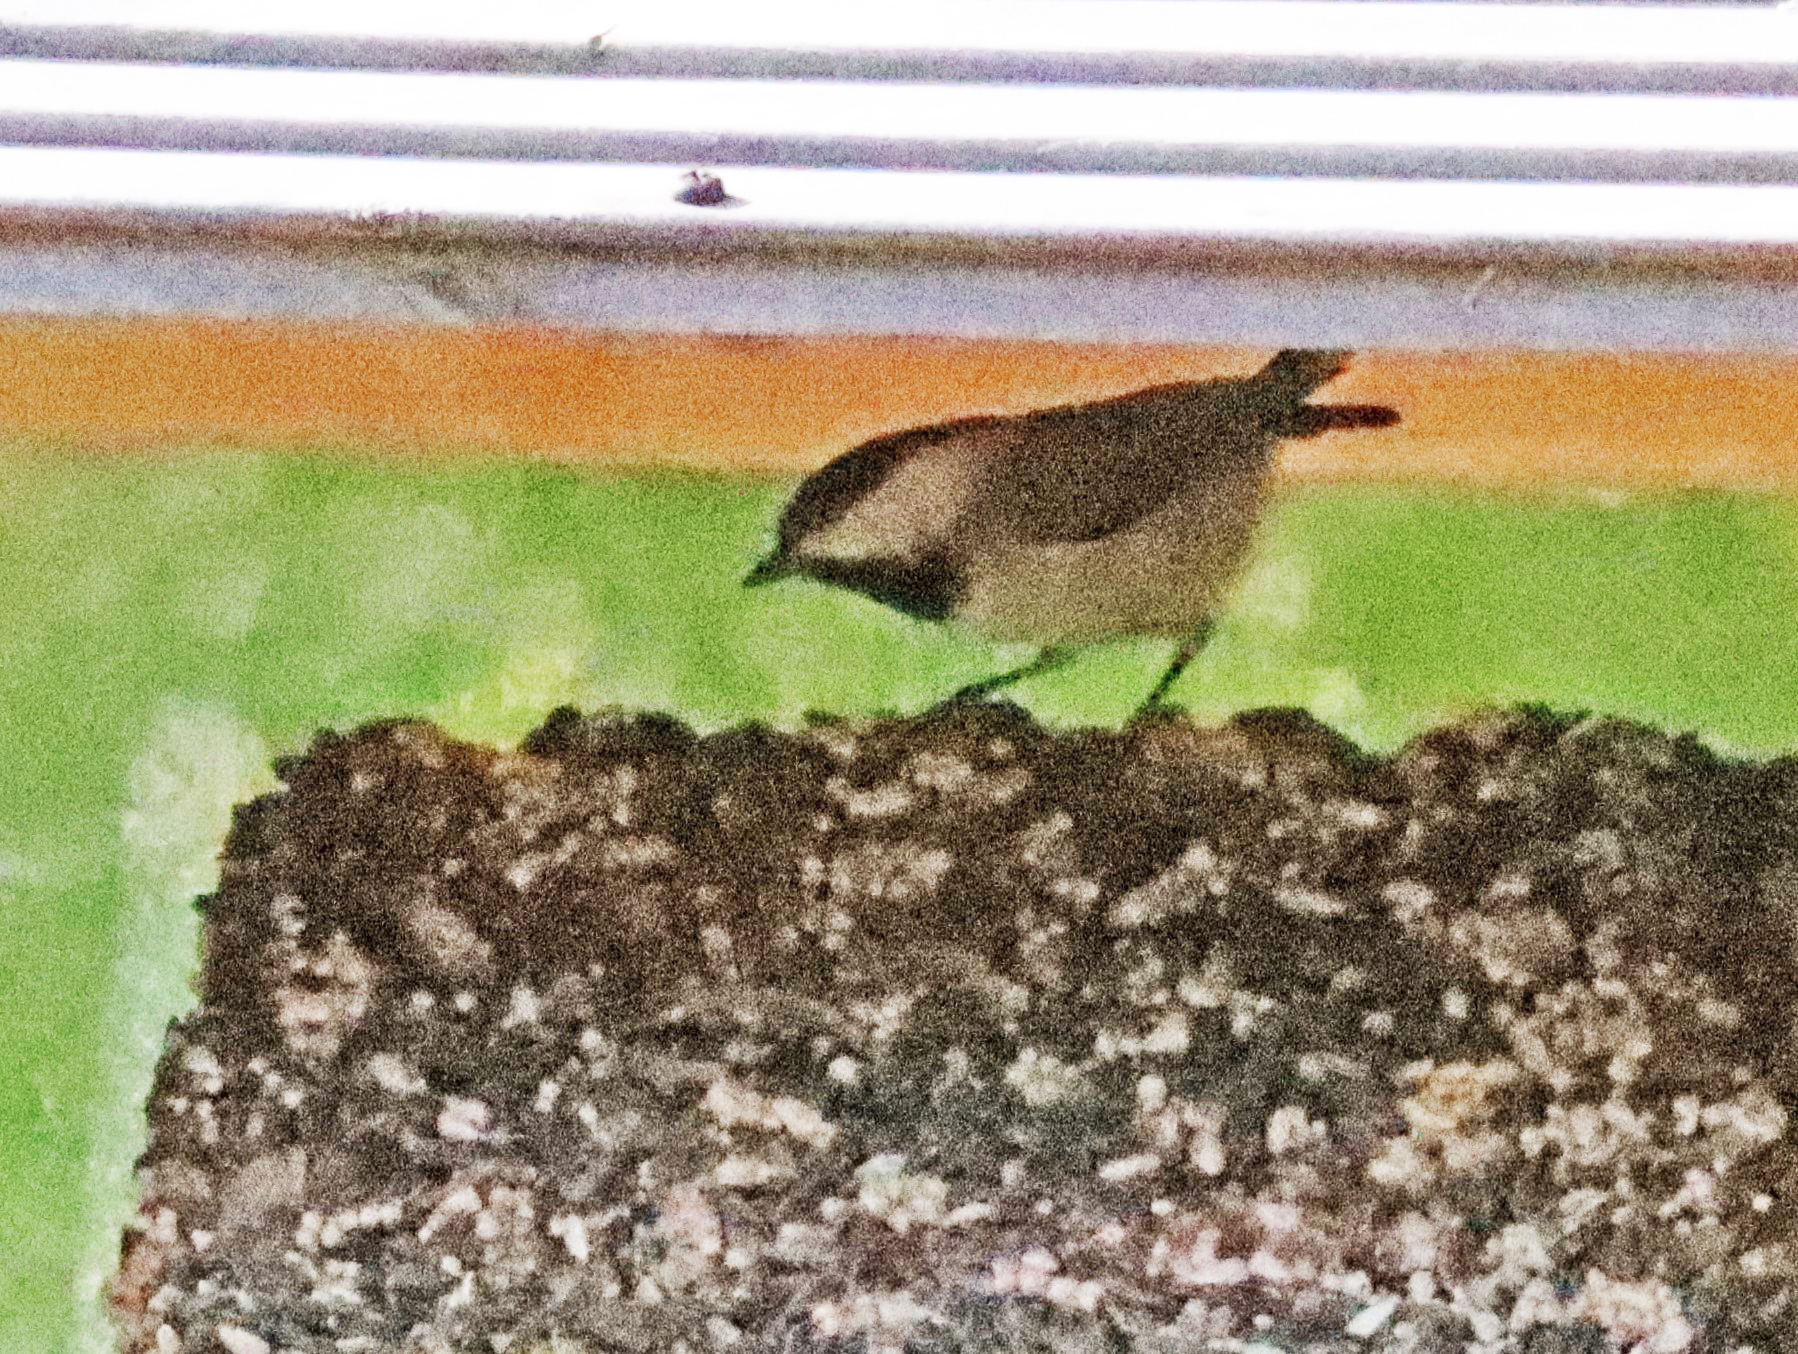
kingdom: Animalia
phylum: Chordata
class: Aves
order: Passeriformes
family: Paridae
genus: Poecile
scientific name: Poecile
